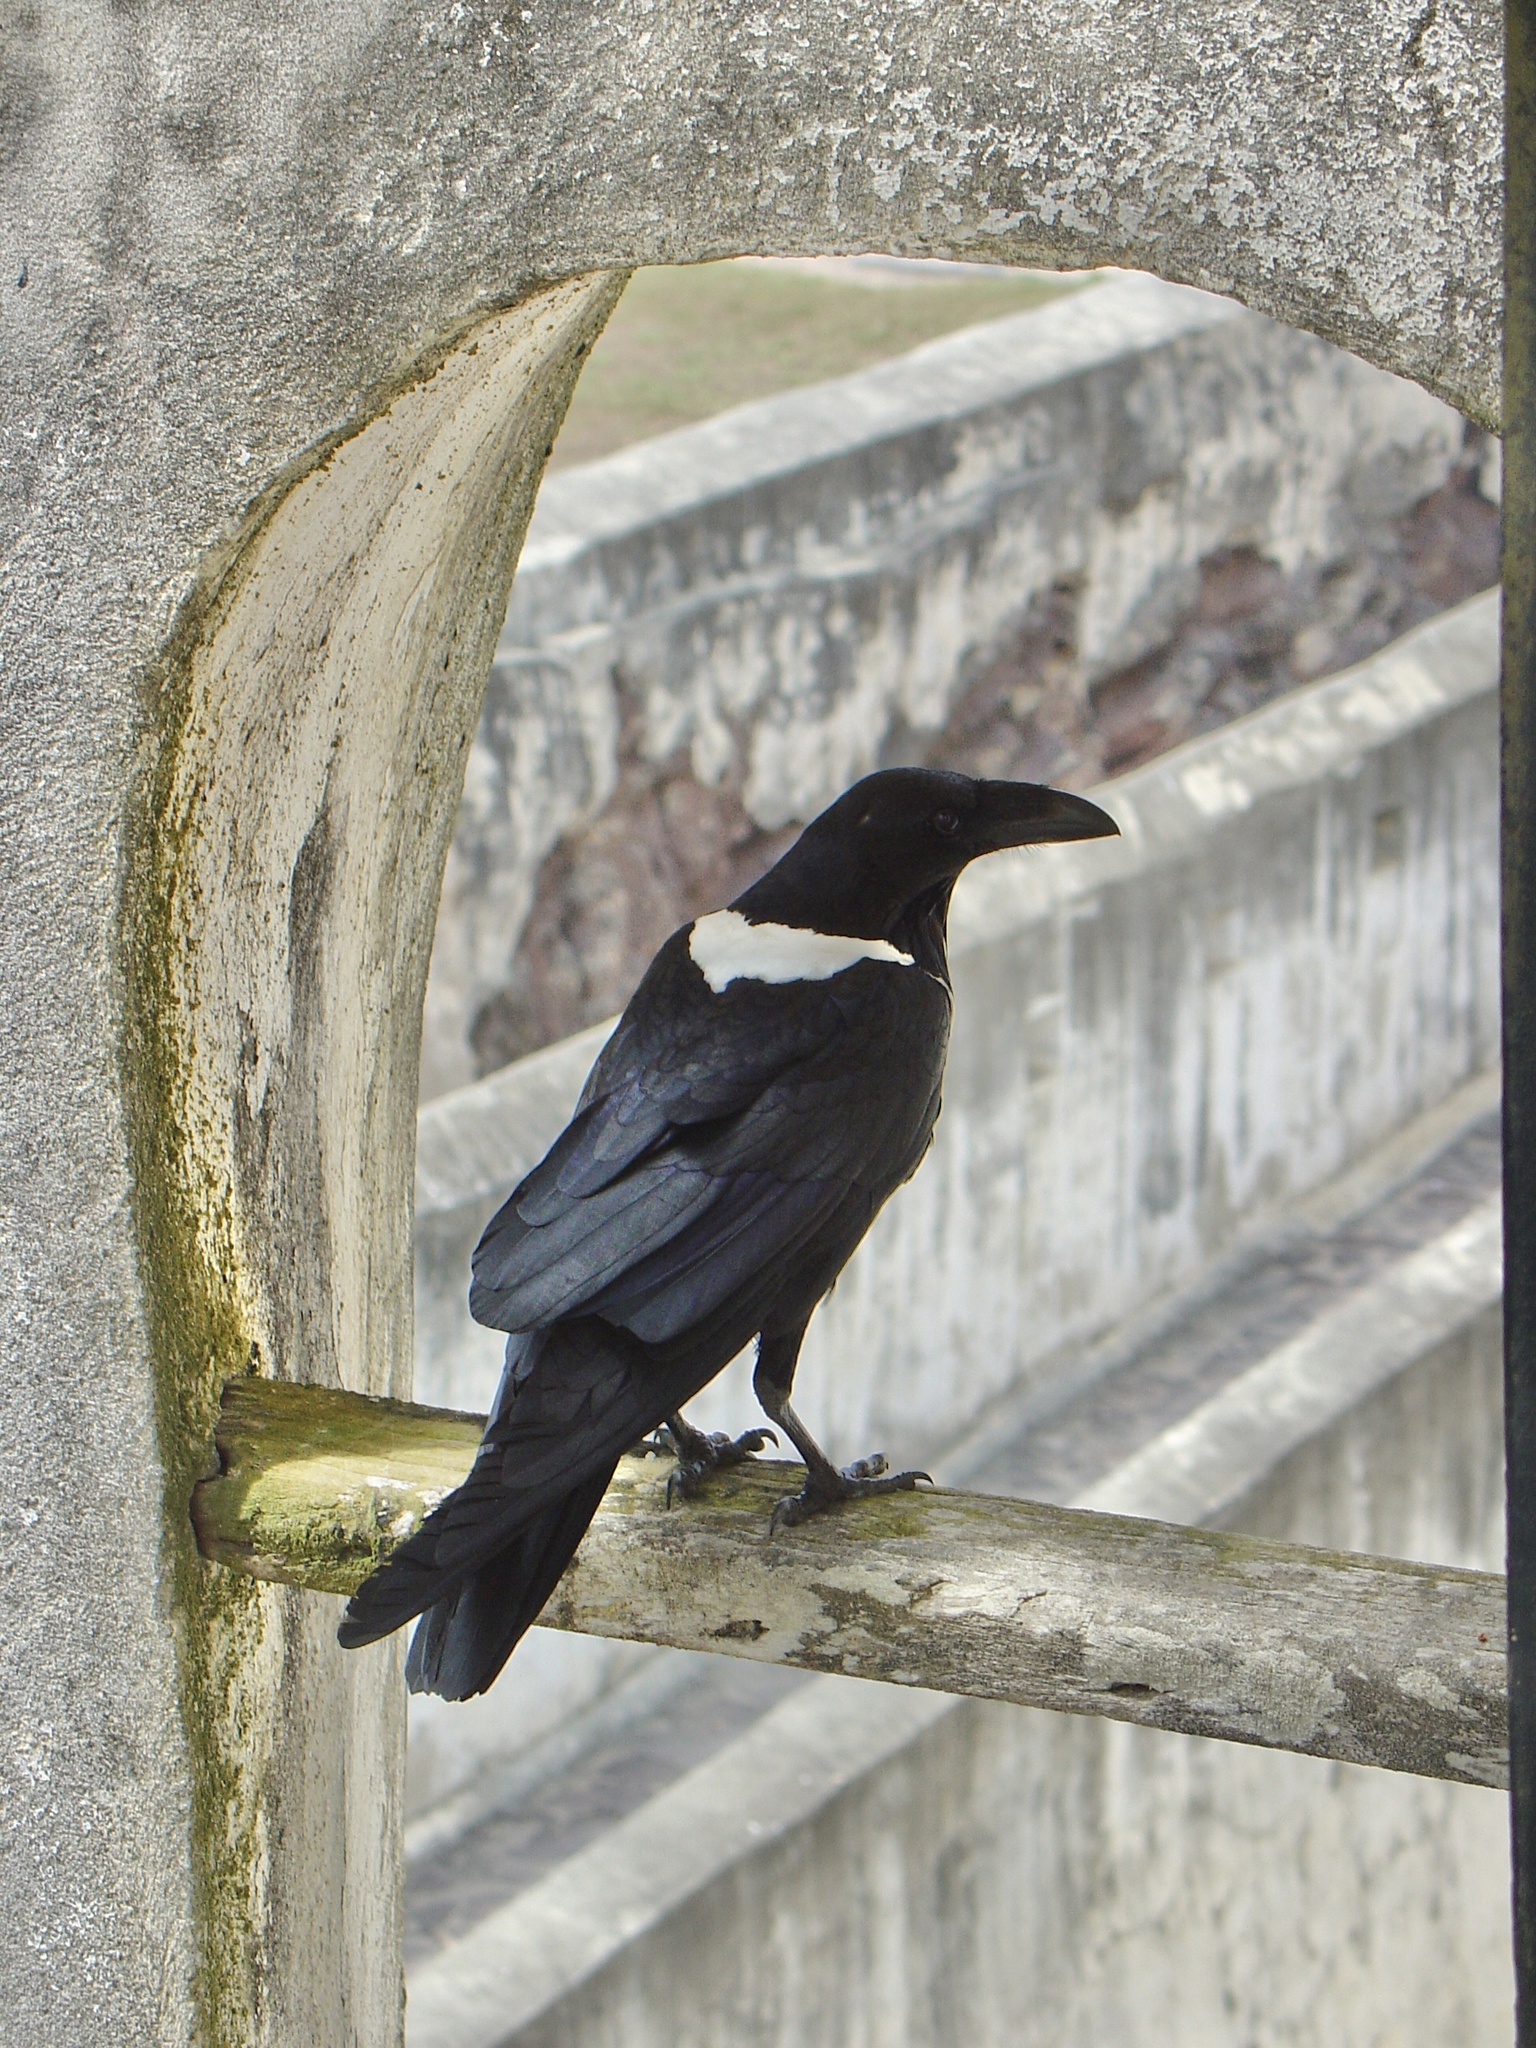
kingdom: Animalia
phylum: Chordata
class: Aves
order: Passeriformes
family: Corvidae
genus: Corvus
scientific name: Corvus albus
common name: Pied crow
